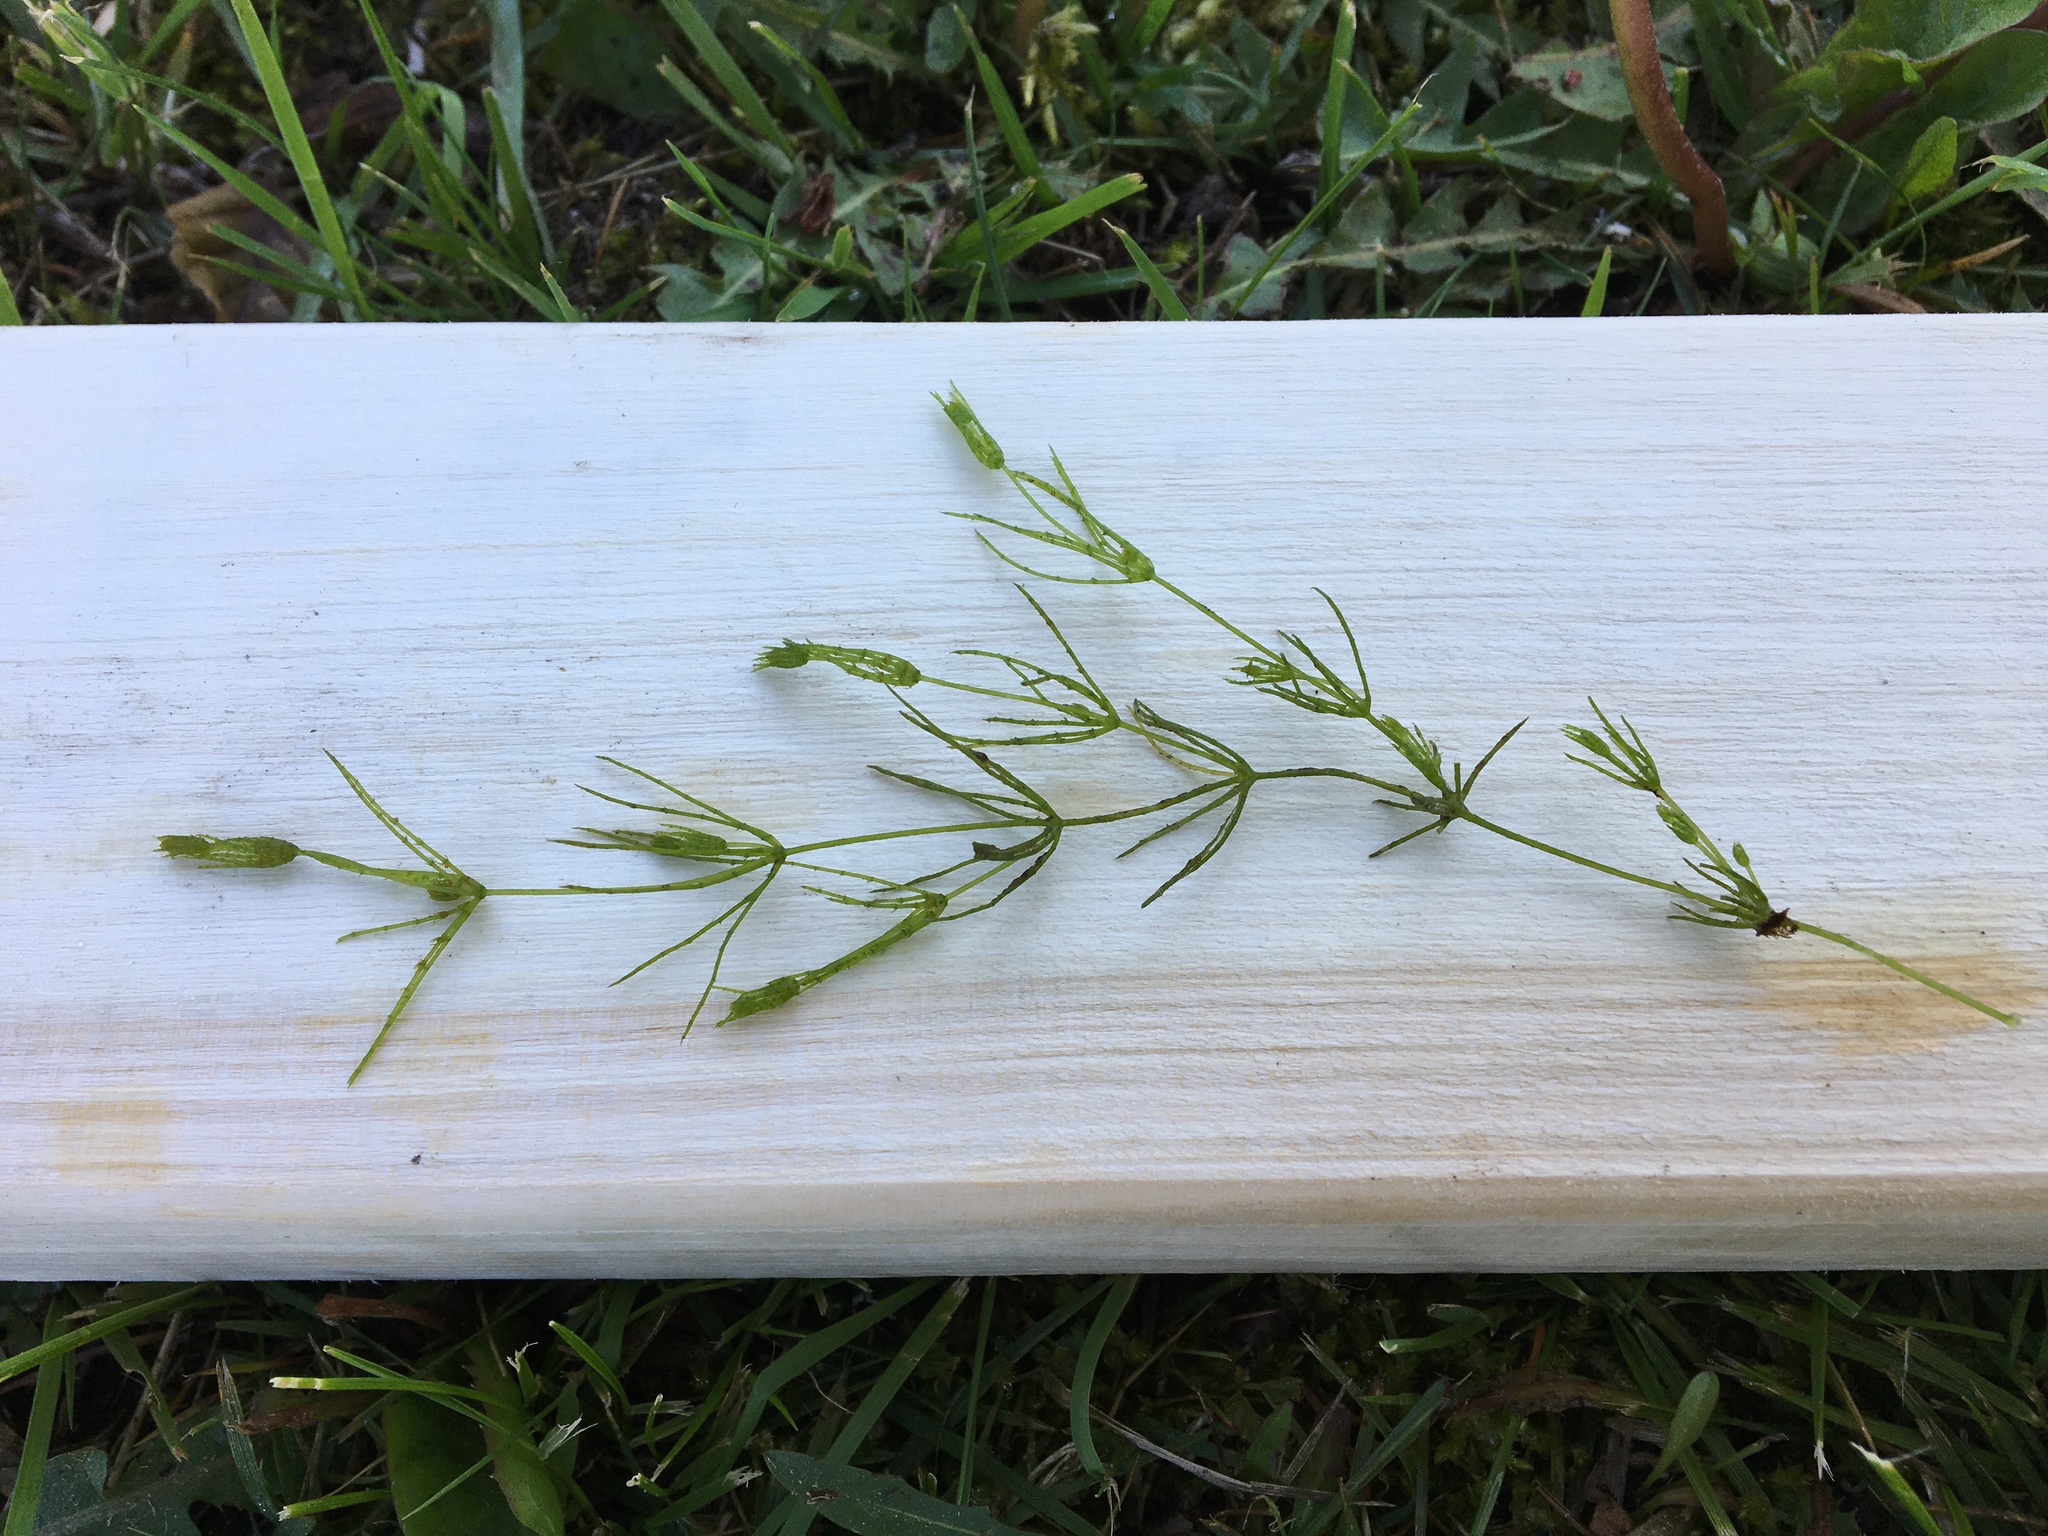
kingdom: Plantae
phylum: Charophyta
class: Charophyceae
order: Charales
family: Characeae
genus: Chara
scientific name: Chara virgata
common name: Delicate stonewort
